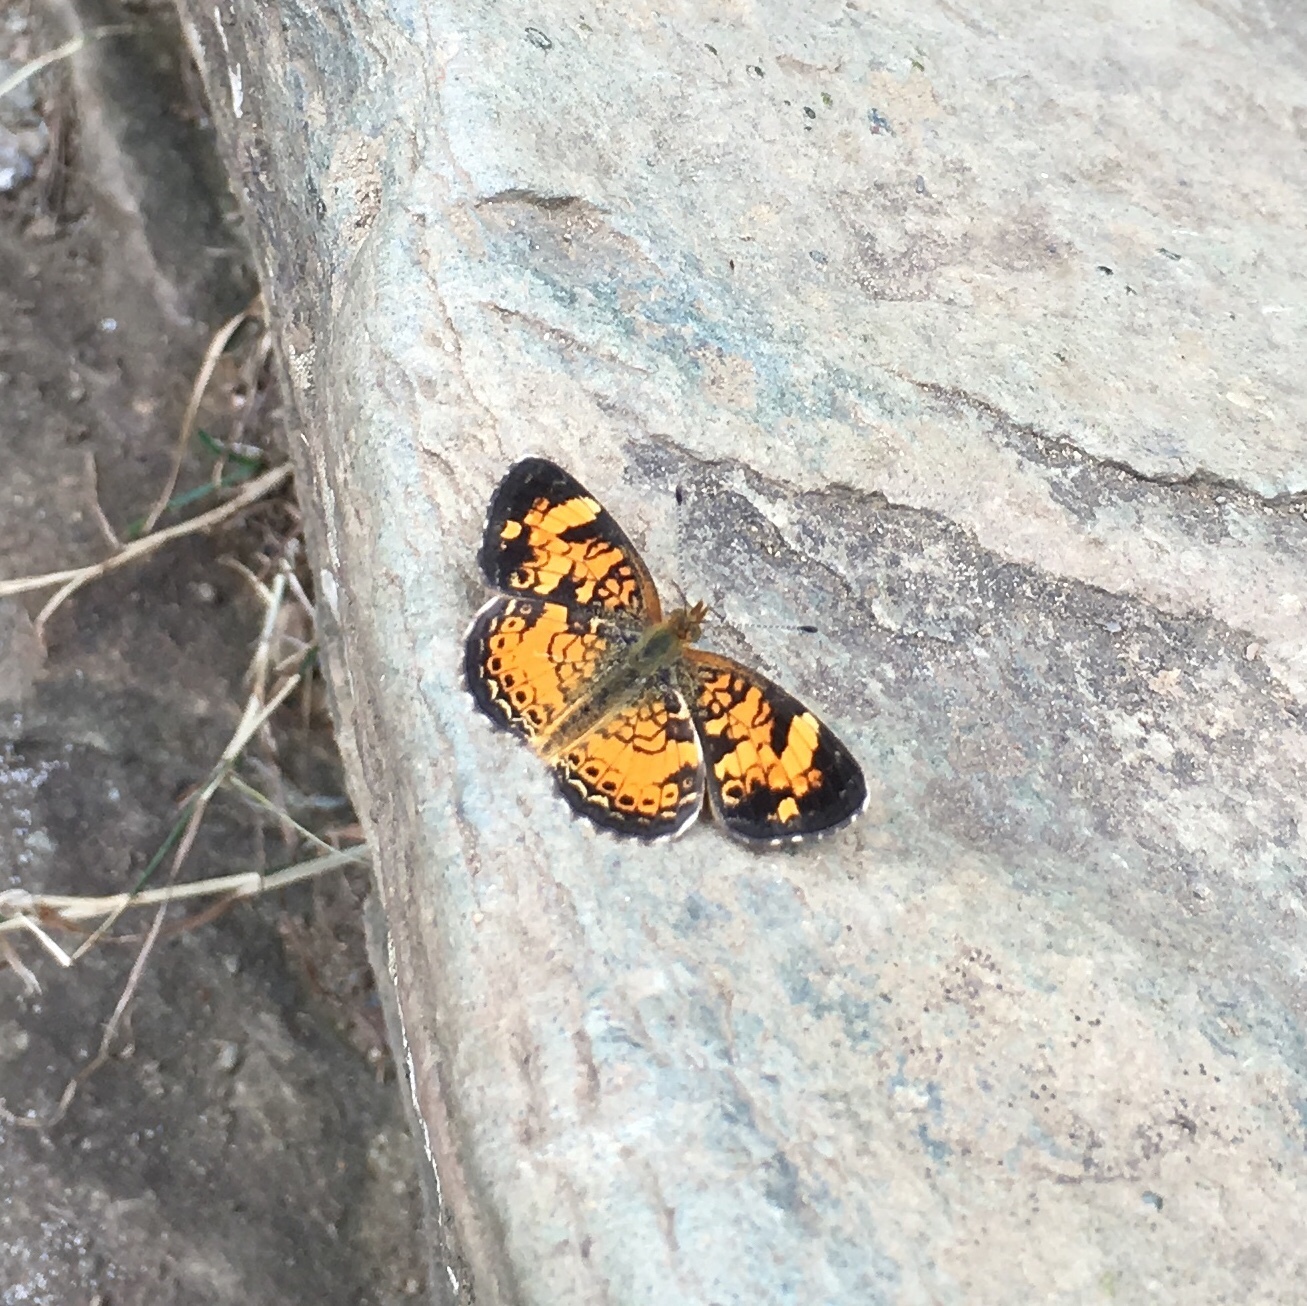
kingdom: Animalia
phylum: Arthropoda
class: Insecta
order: Lepidoptera
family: Nymphalidae
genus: Phyciodes
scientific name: Phyciodes tharos
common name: Pearl crescent
